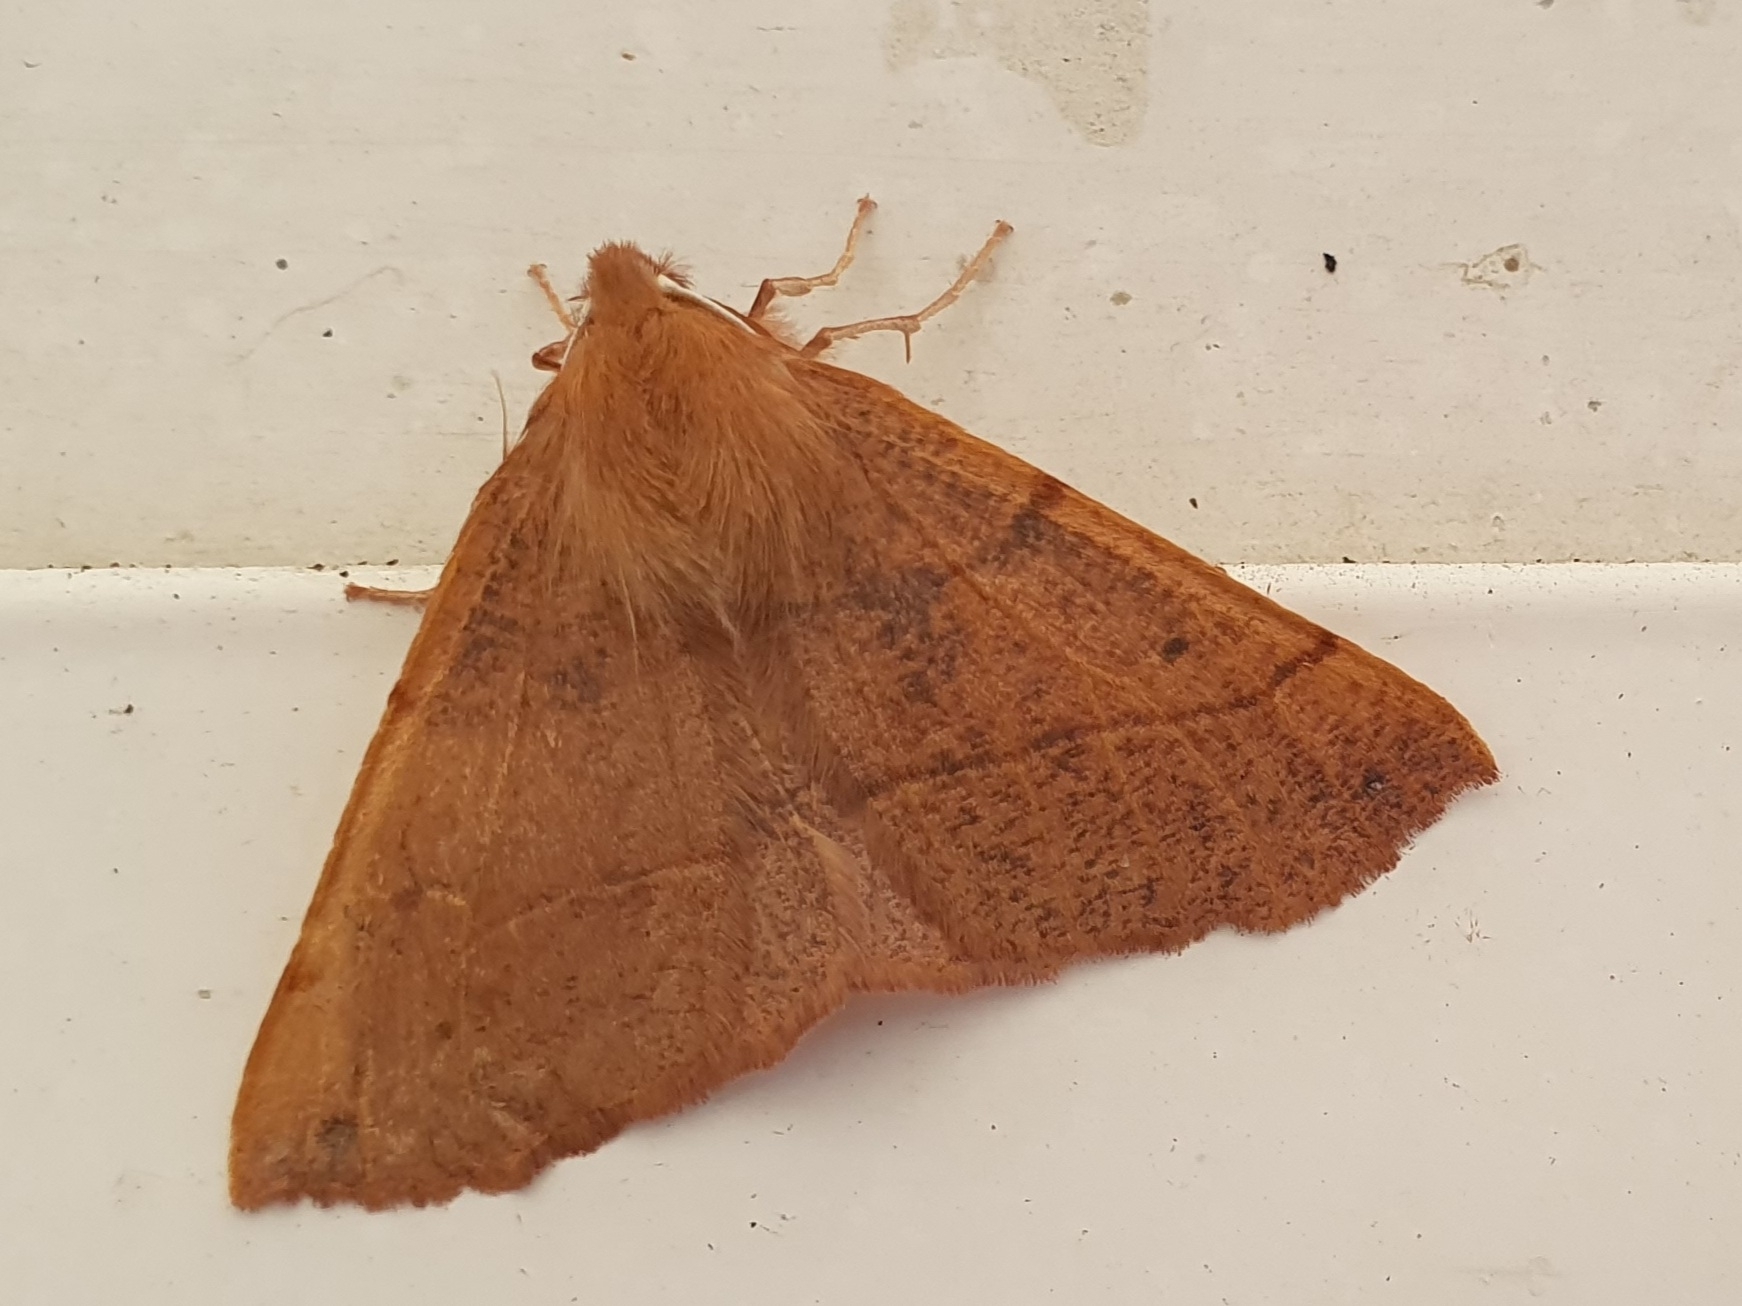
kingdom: Animalia
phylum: Arthropoda
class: Insecta
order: Lepidoptera
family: Geometridae
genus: Colotois
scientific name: Colotois pennaria
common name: Feathered thorn
